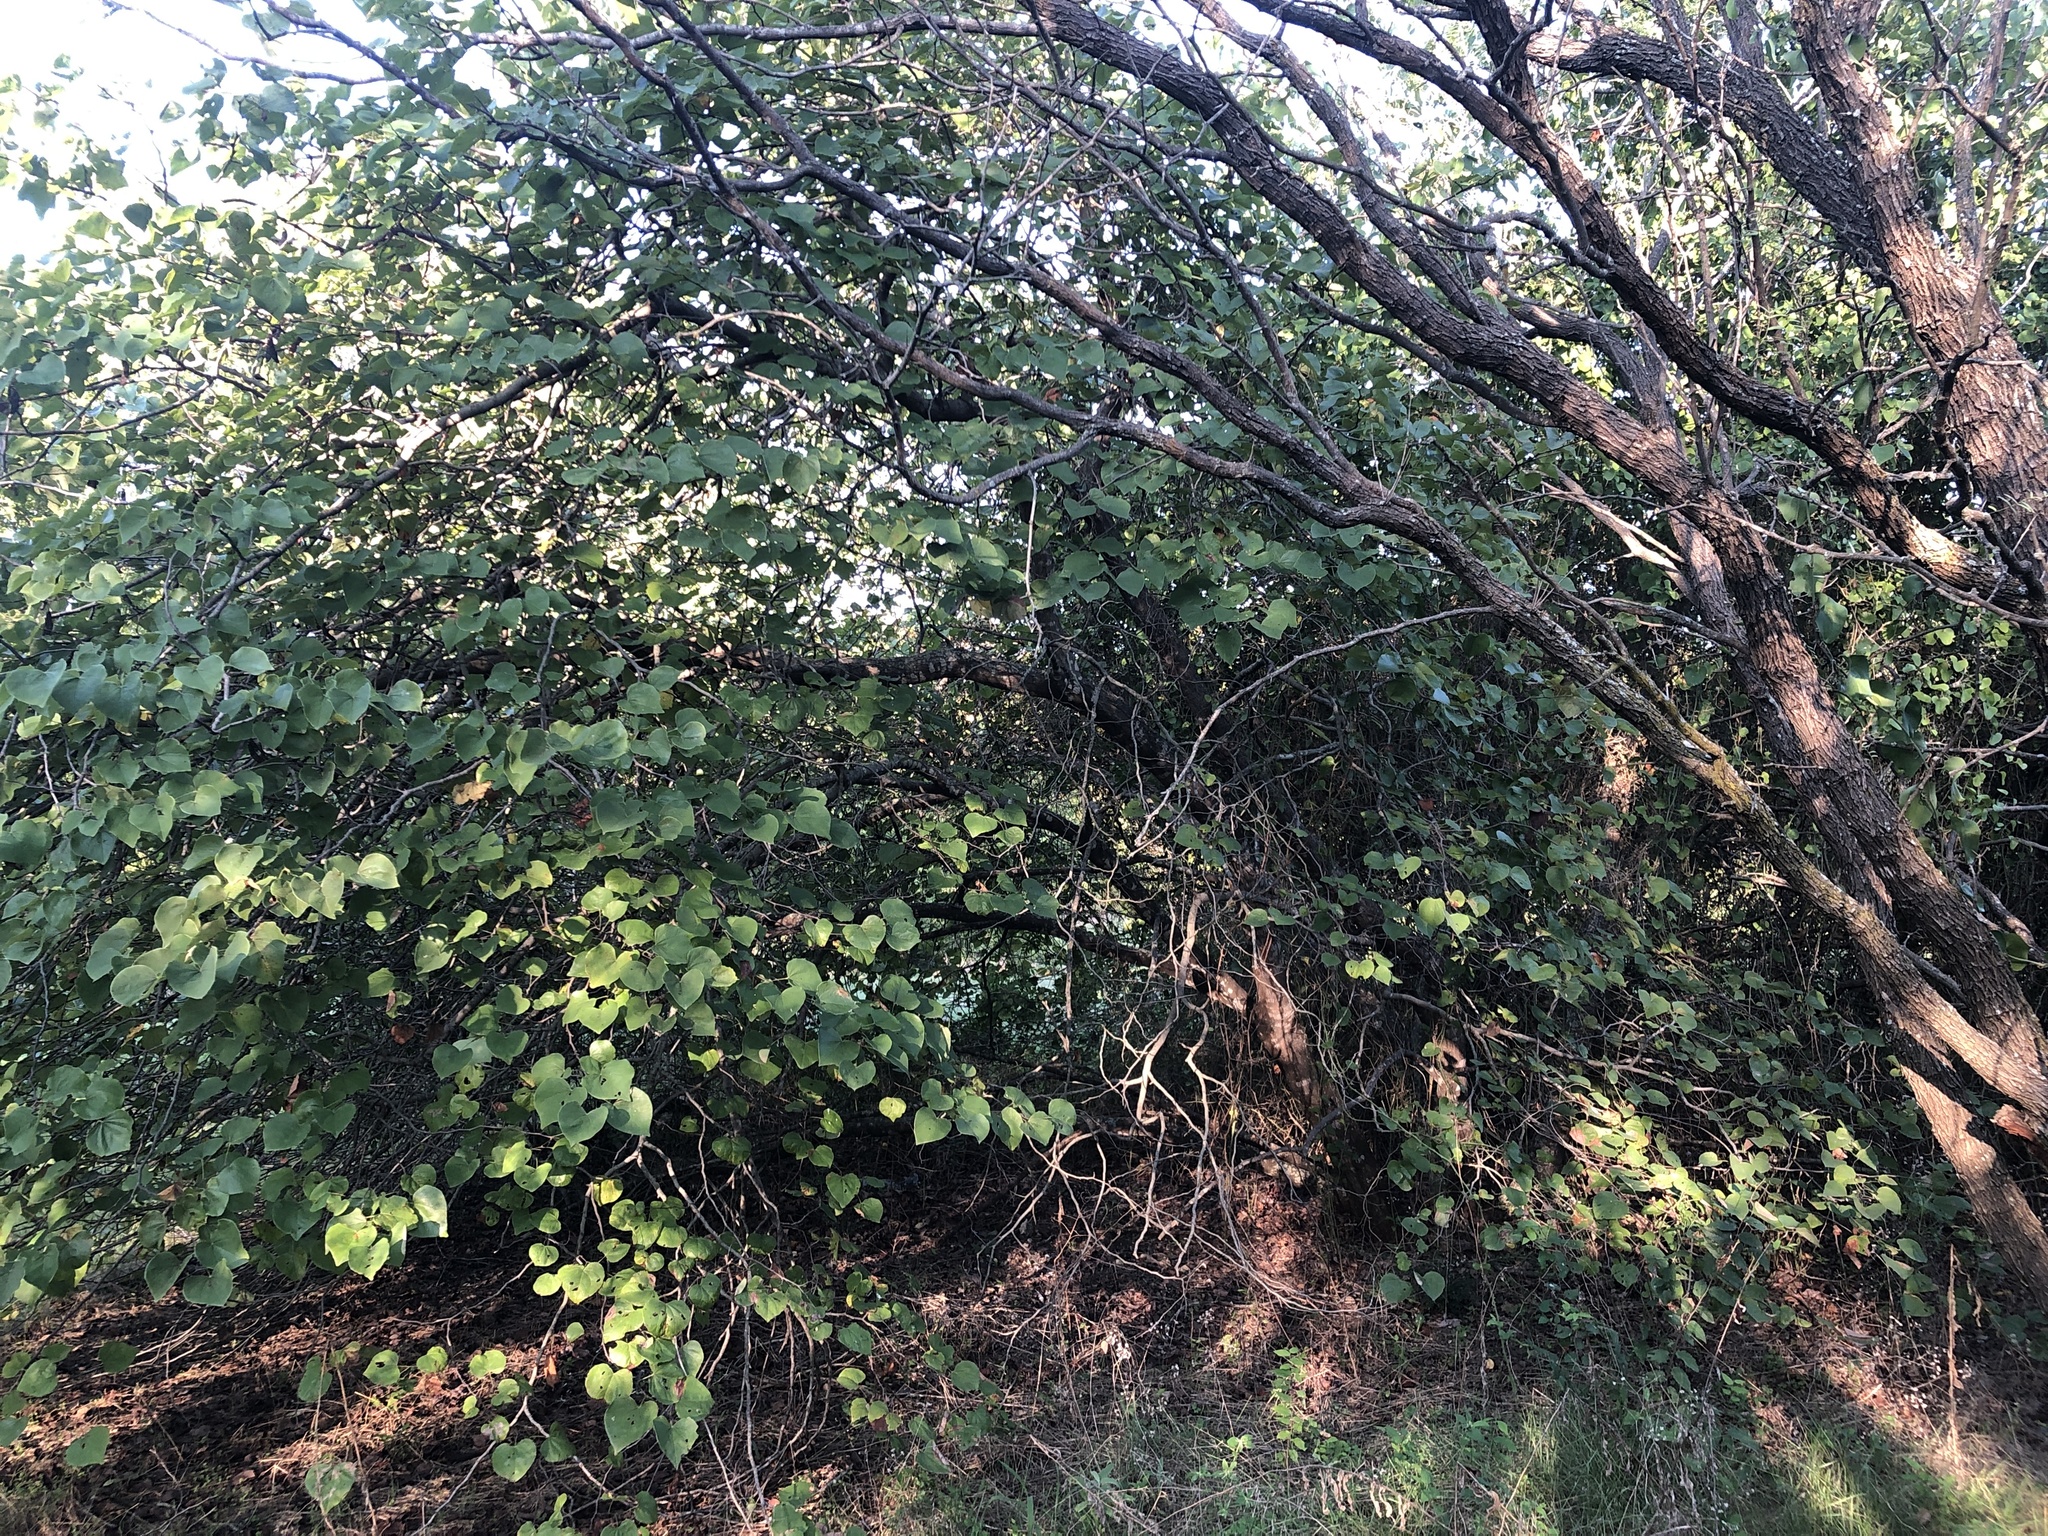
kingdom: Plantae
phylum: Tracheophyta
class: Magnoliopsida
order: Fabales
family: Fabaceae
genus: Cercis
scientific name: Cercis canadensis
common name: Eastern redbud
